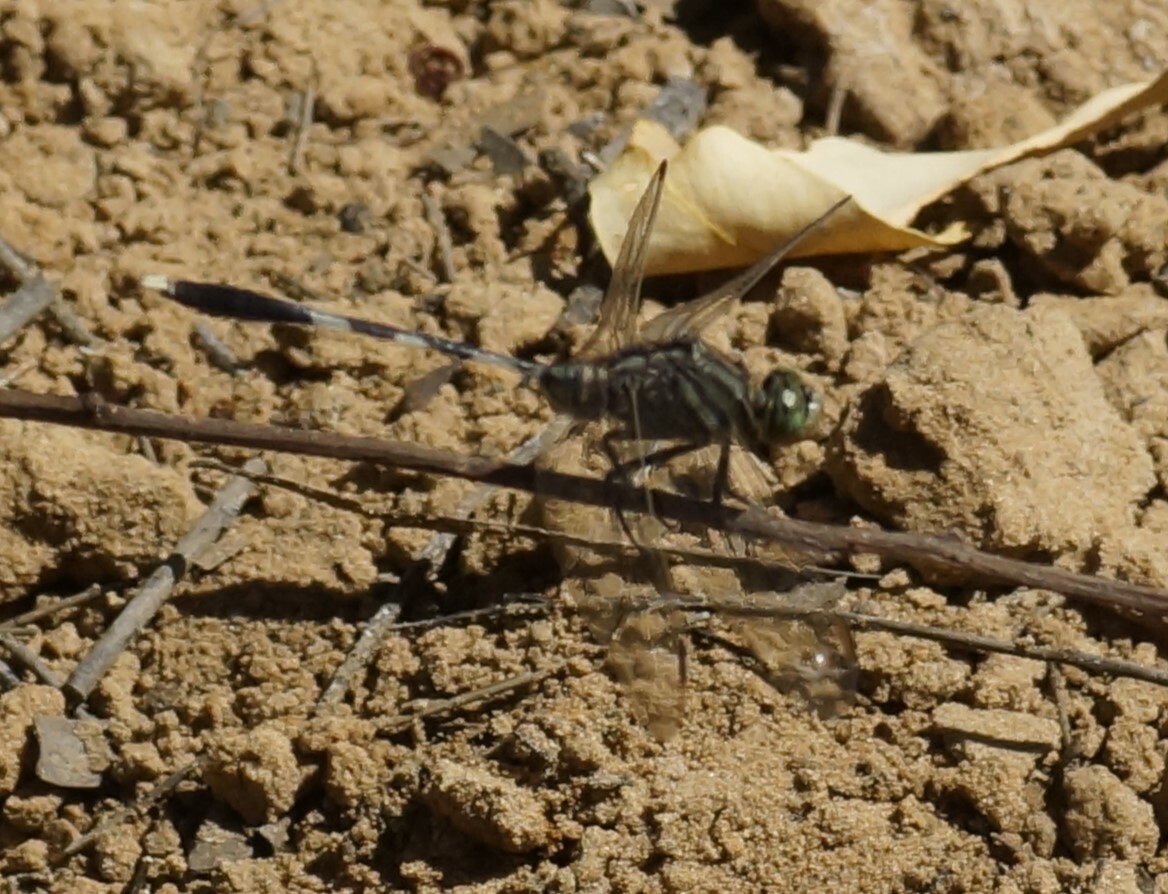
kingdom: Animalia
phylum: Arthropoda
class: Insecta
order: Odonata
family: Libellulidae
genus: Orthetrum
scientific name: Orthetrum sabina
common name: Slender skimmer
